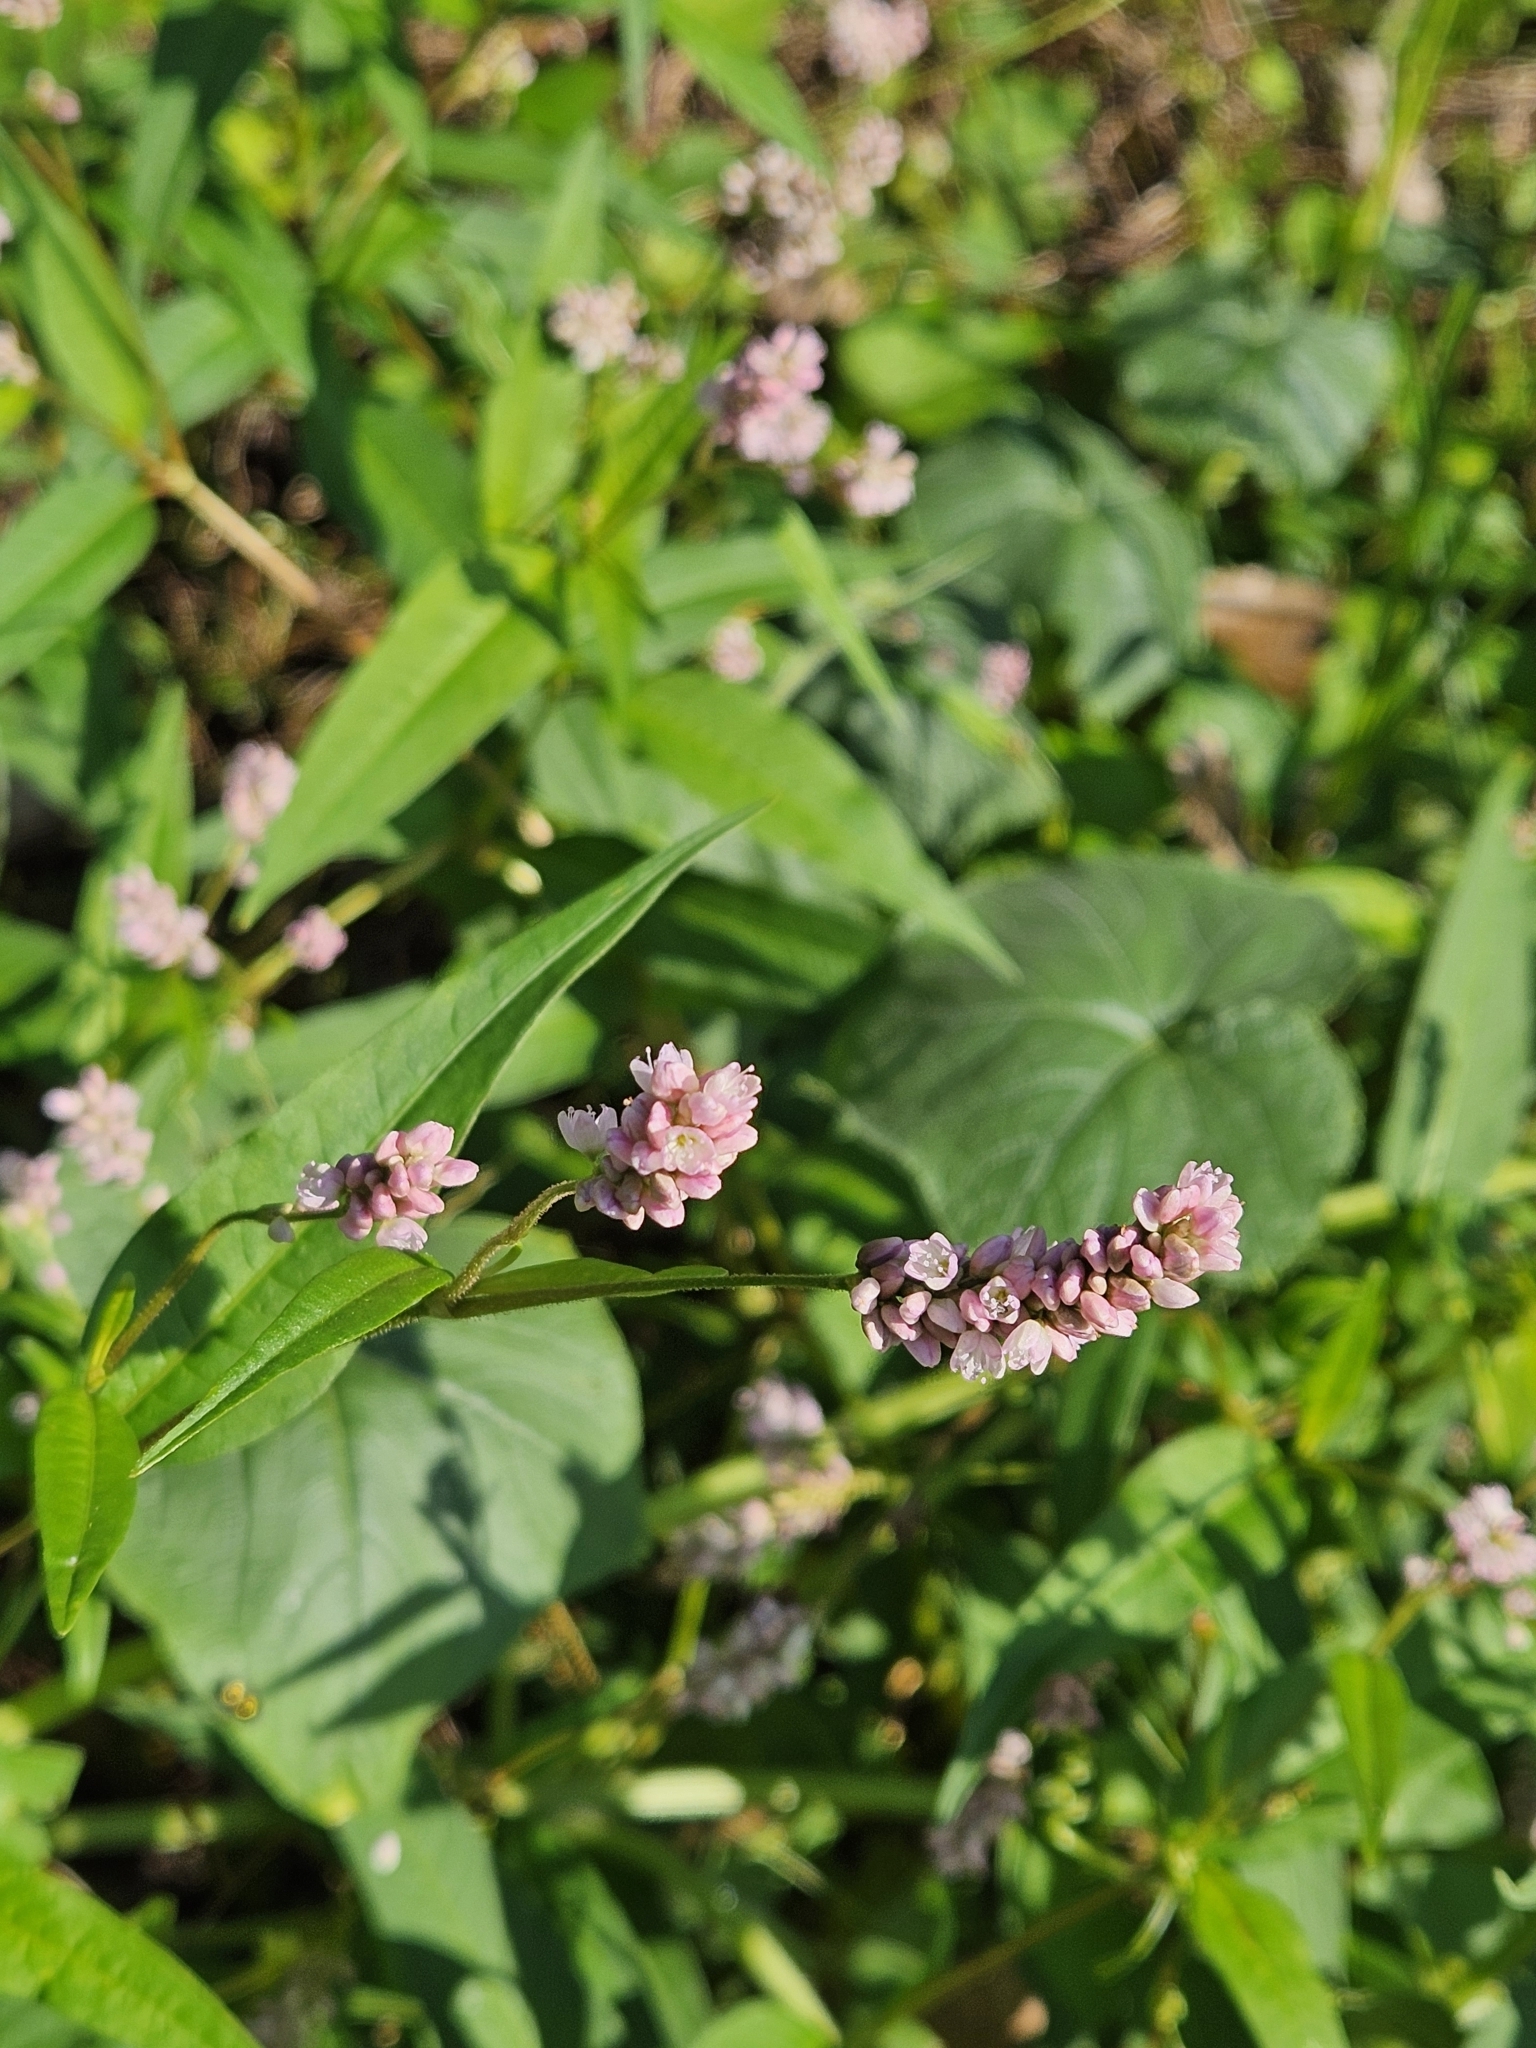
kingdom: Plantae
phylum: Tracheophyta
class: Magnoliopsida
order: Caryophyllales
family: Polygonaceae
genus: Persicaria
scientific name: Persicaria pensylvanica
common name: Pinkweed
